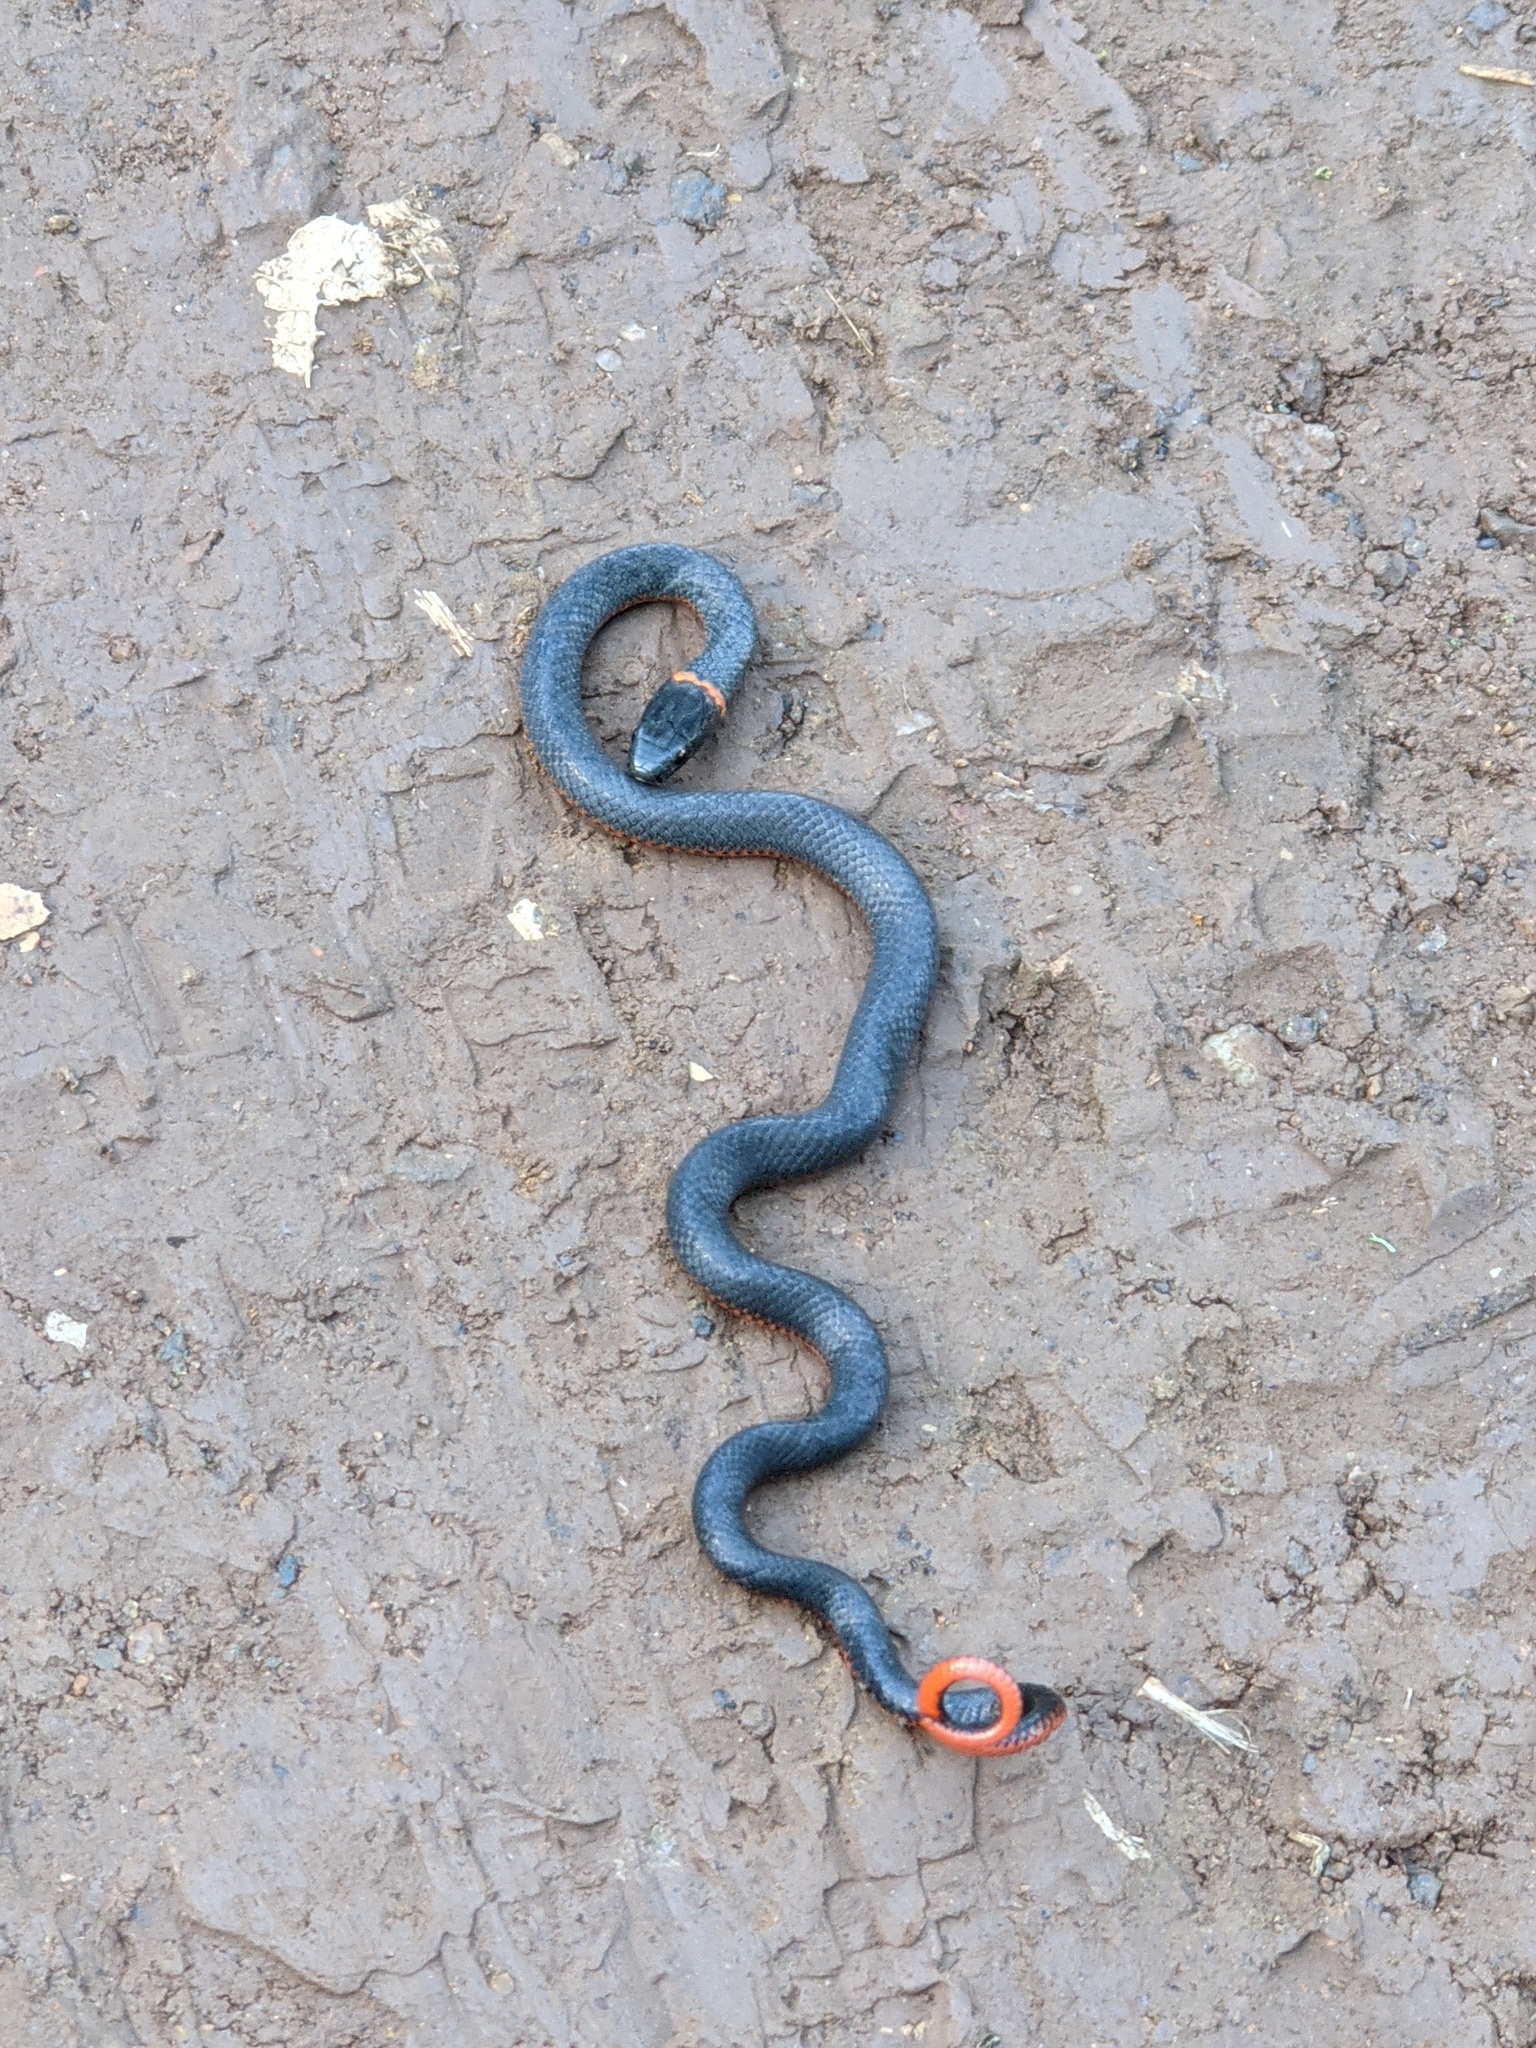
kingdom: Animalia
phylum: Chordata
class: Squamata
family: Colubridae
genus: Diadophis
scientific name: Diadophis punctatus
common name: Ringneck snake
